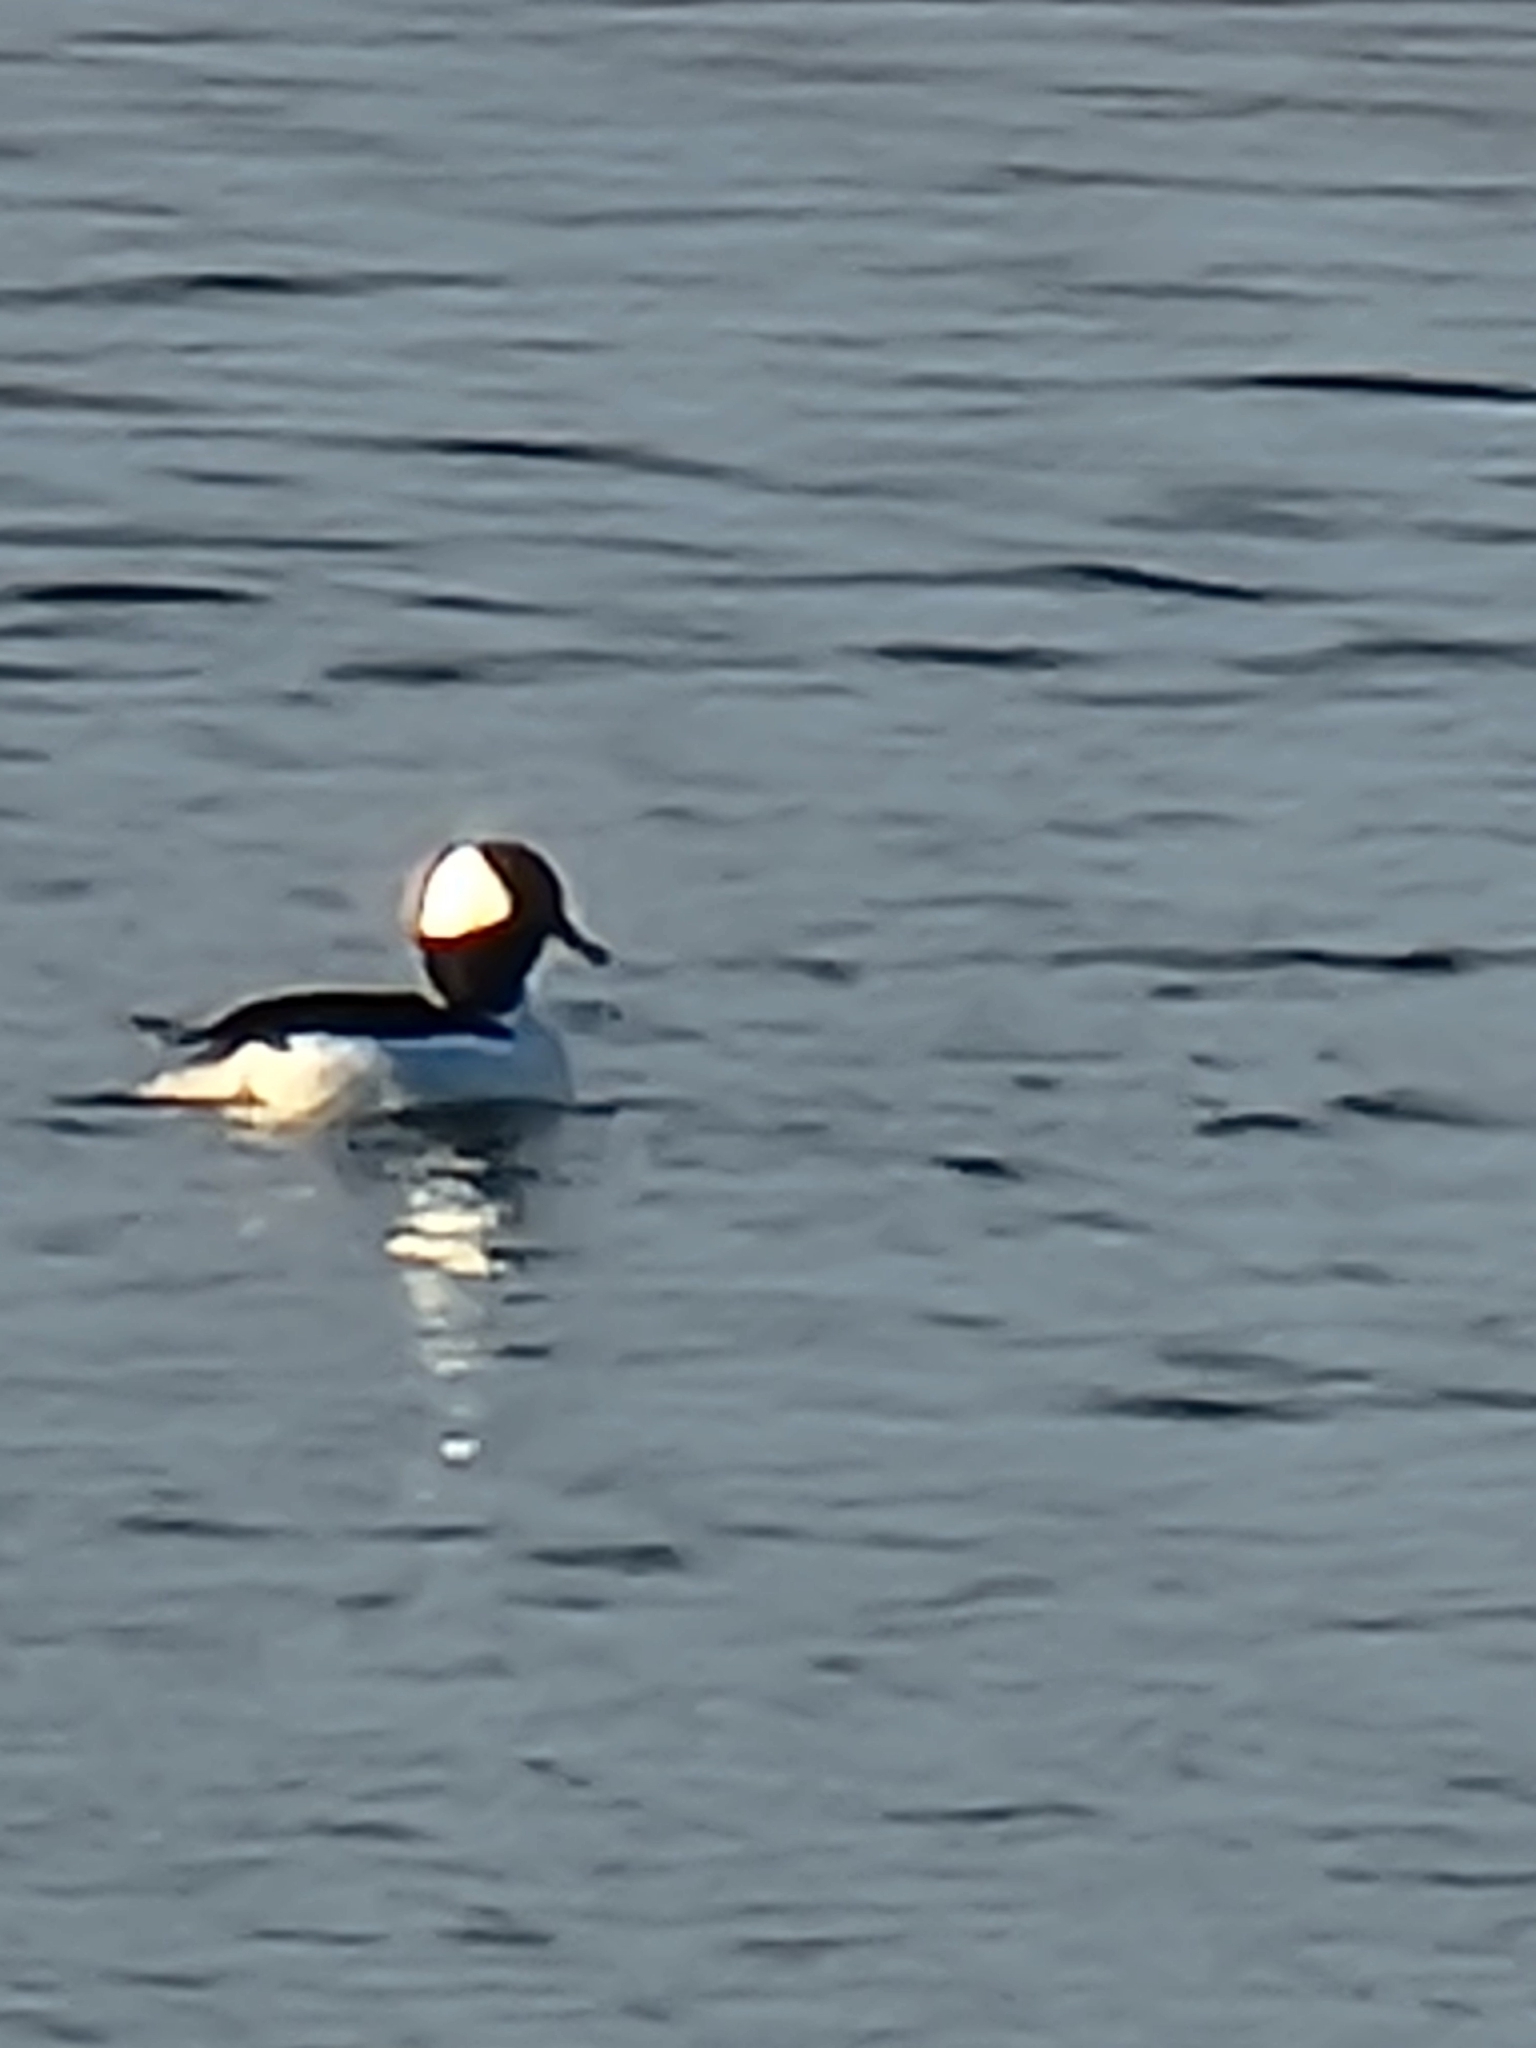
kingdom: Animalia
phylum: Chordata
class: Aves
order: Anseriformes
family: Anatidae
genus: Bucephala
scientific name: Bucephala albeola
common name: Bufflehead
